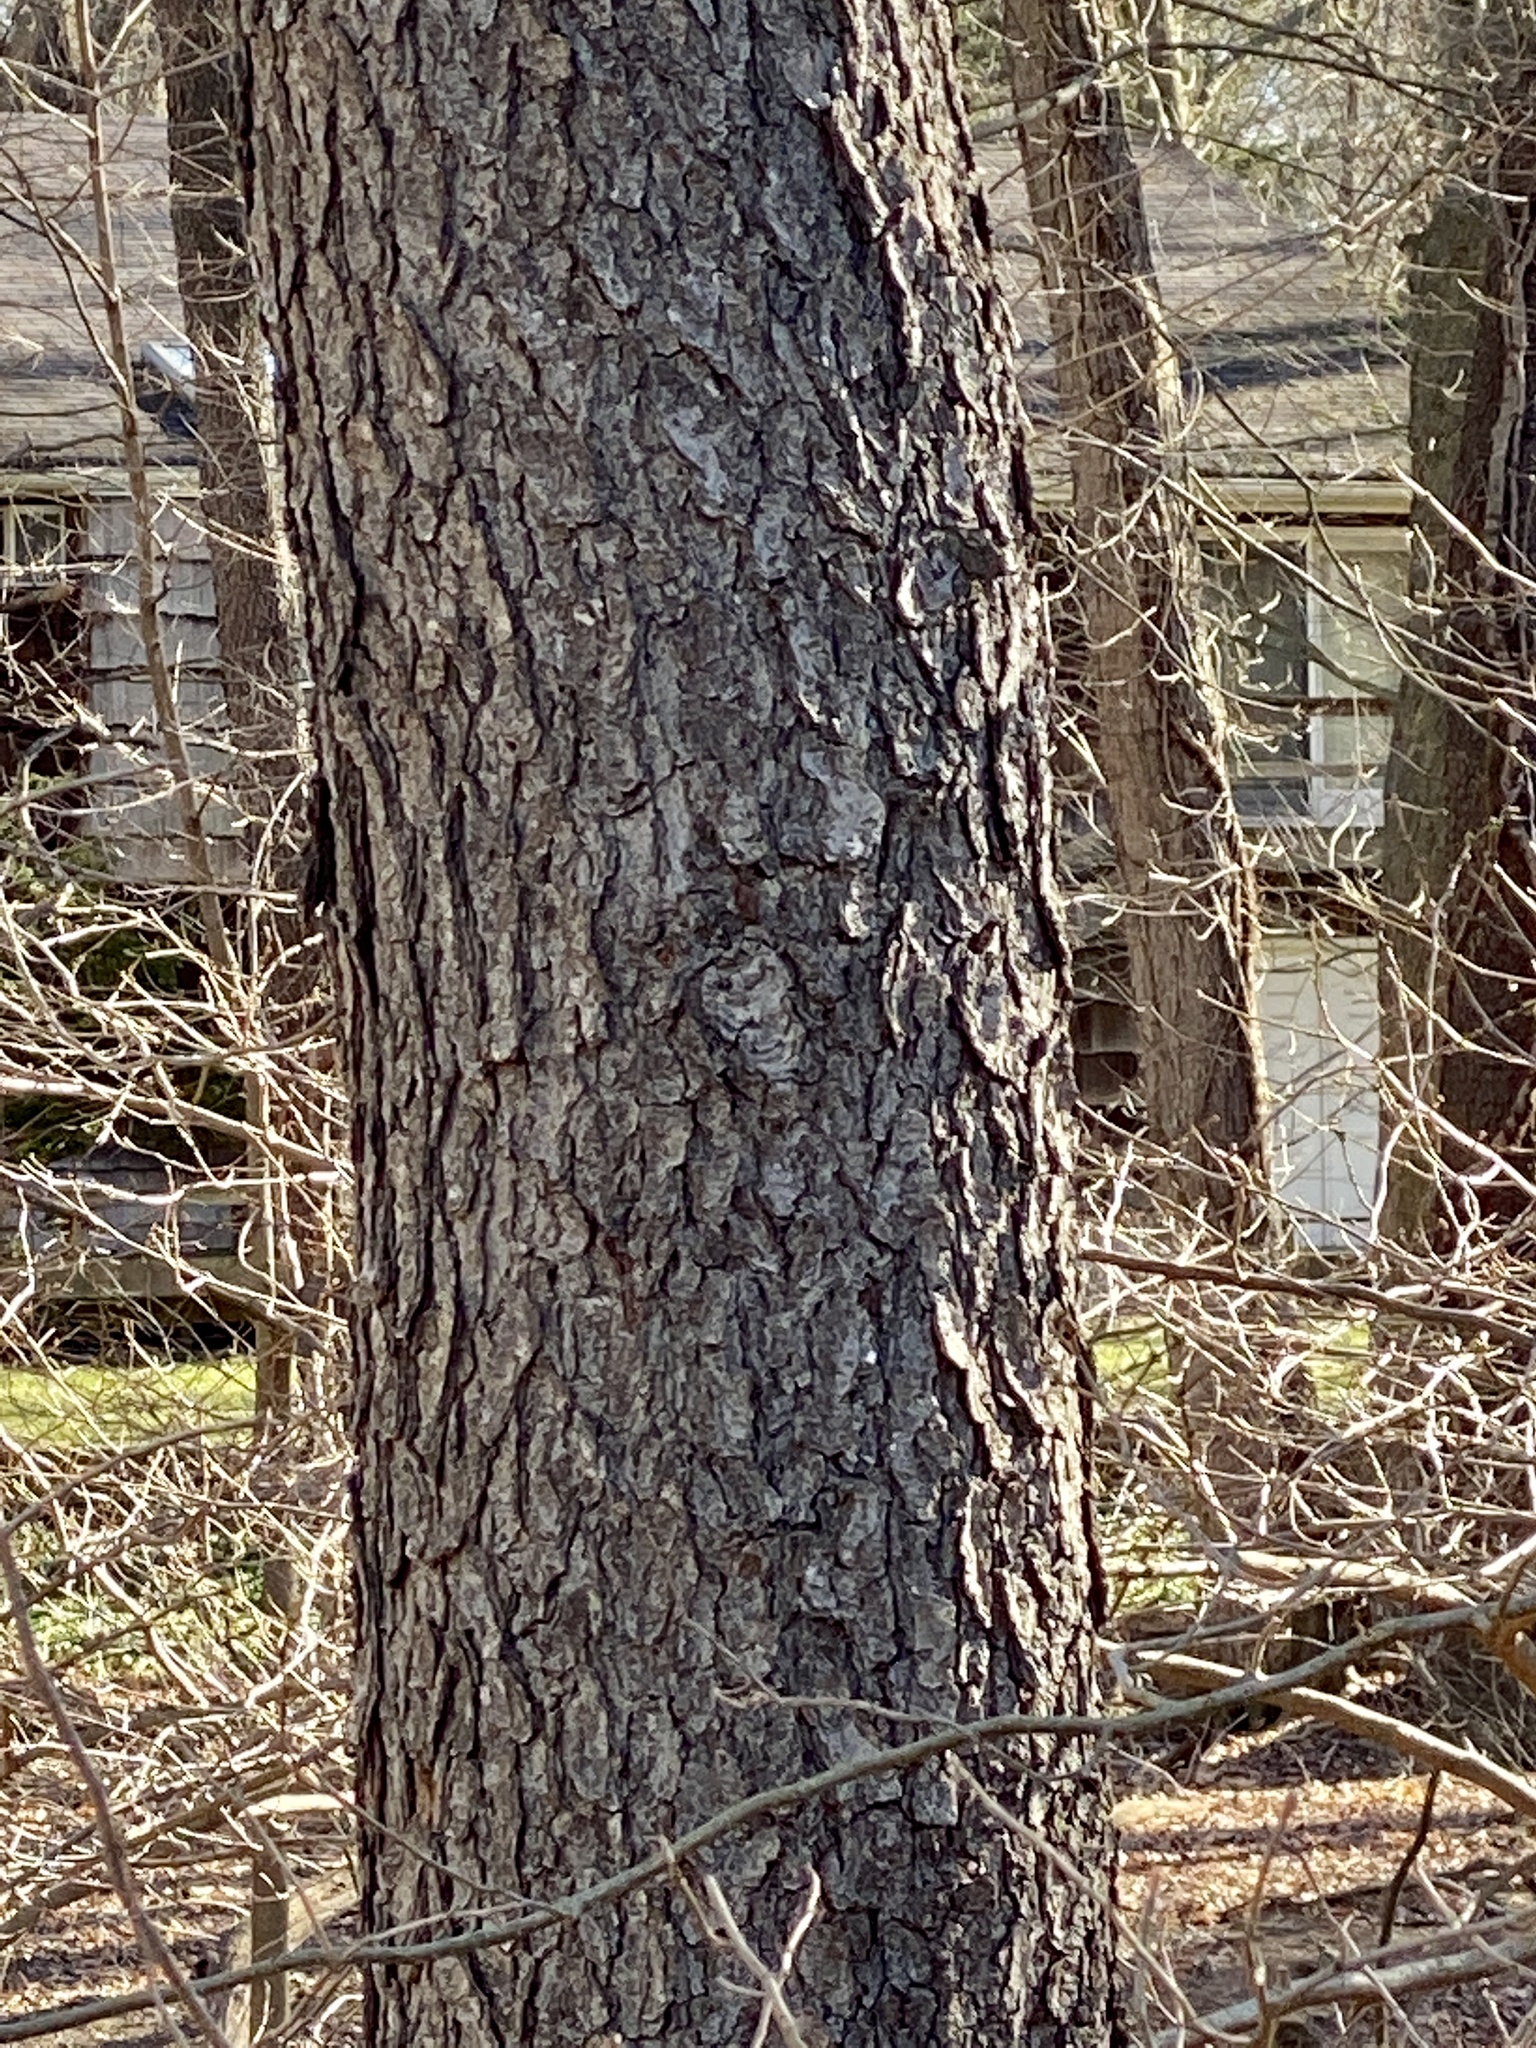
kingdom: Plantae
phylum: Tracheophyta
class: Magnoliopsida
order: Rosales
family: Rosaceae
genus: Prunus
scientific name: Prunus serotina
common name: Black cherry
